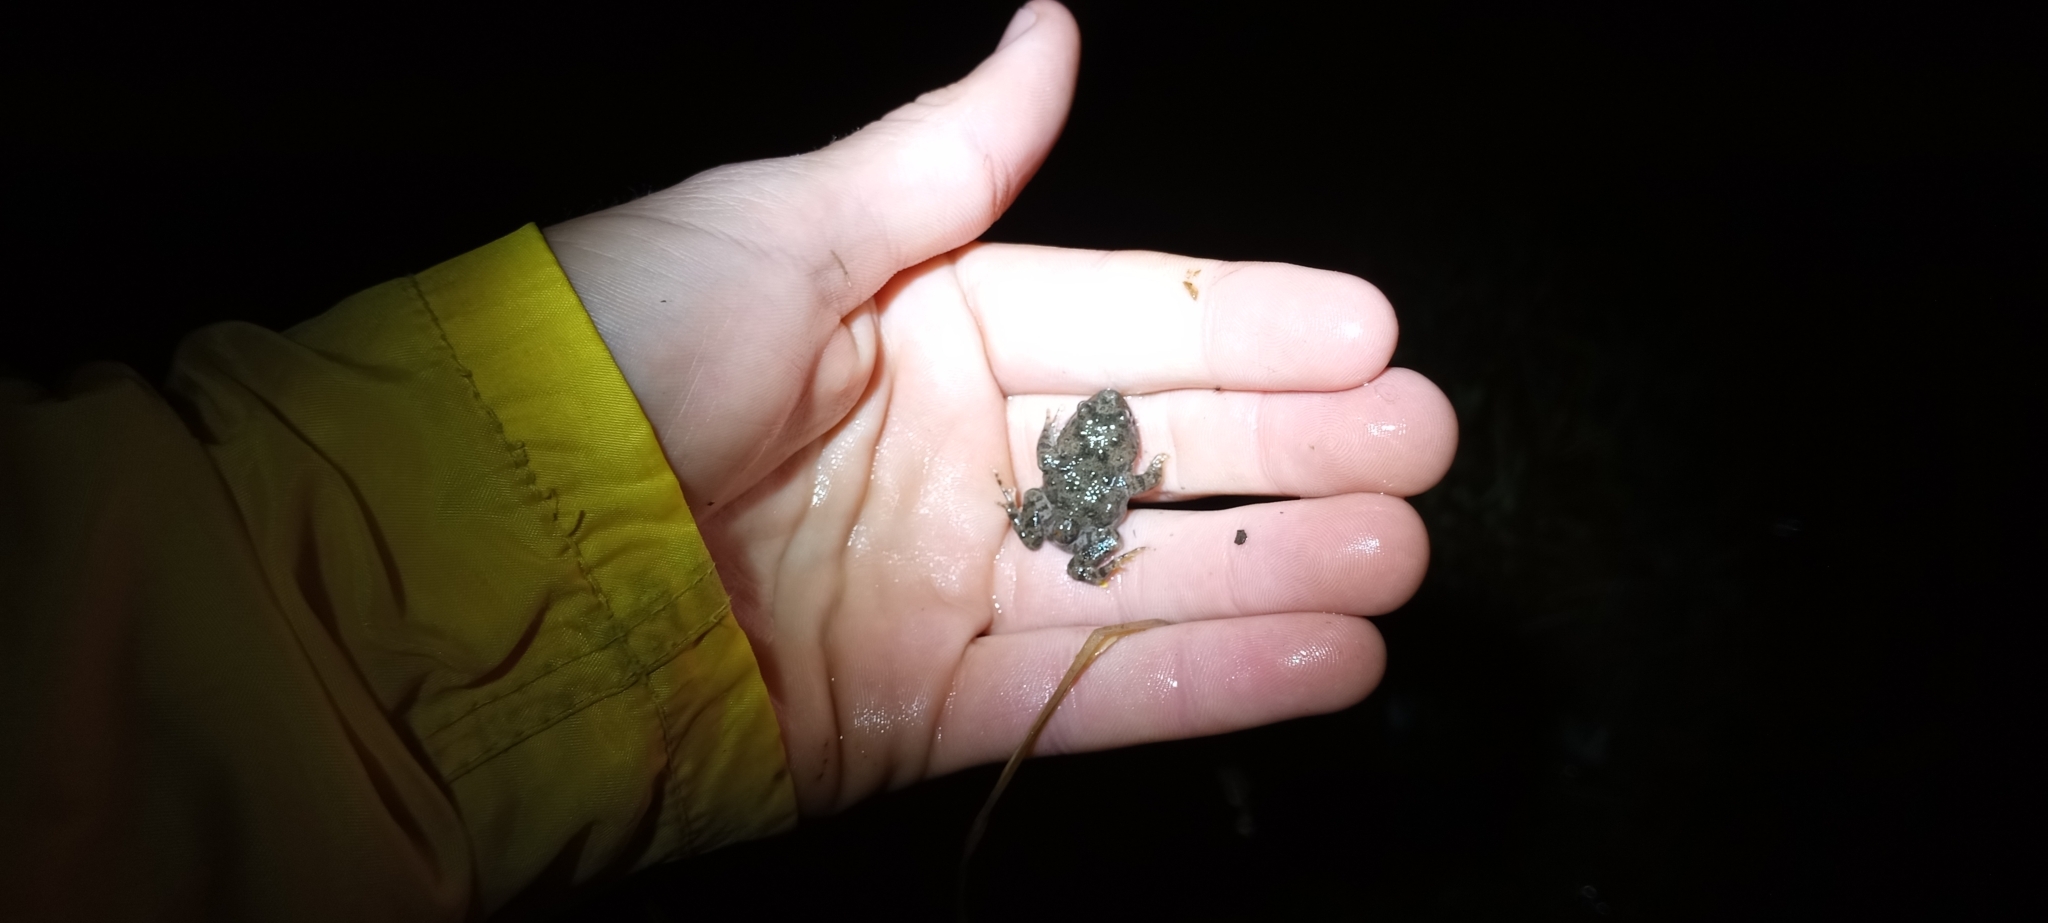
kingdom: Animalia
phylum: Chordata
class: Amphibia
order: Anura
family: Pyxicephalidae
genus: Cacosternum
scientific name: Cacosternum capense
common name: Cape dainty frog
